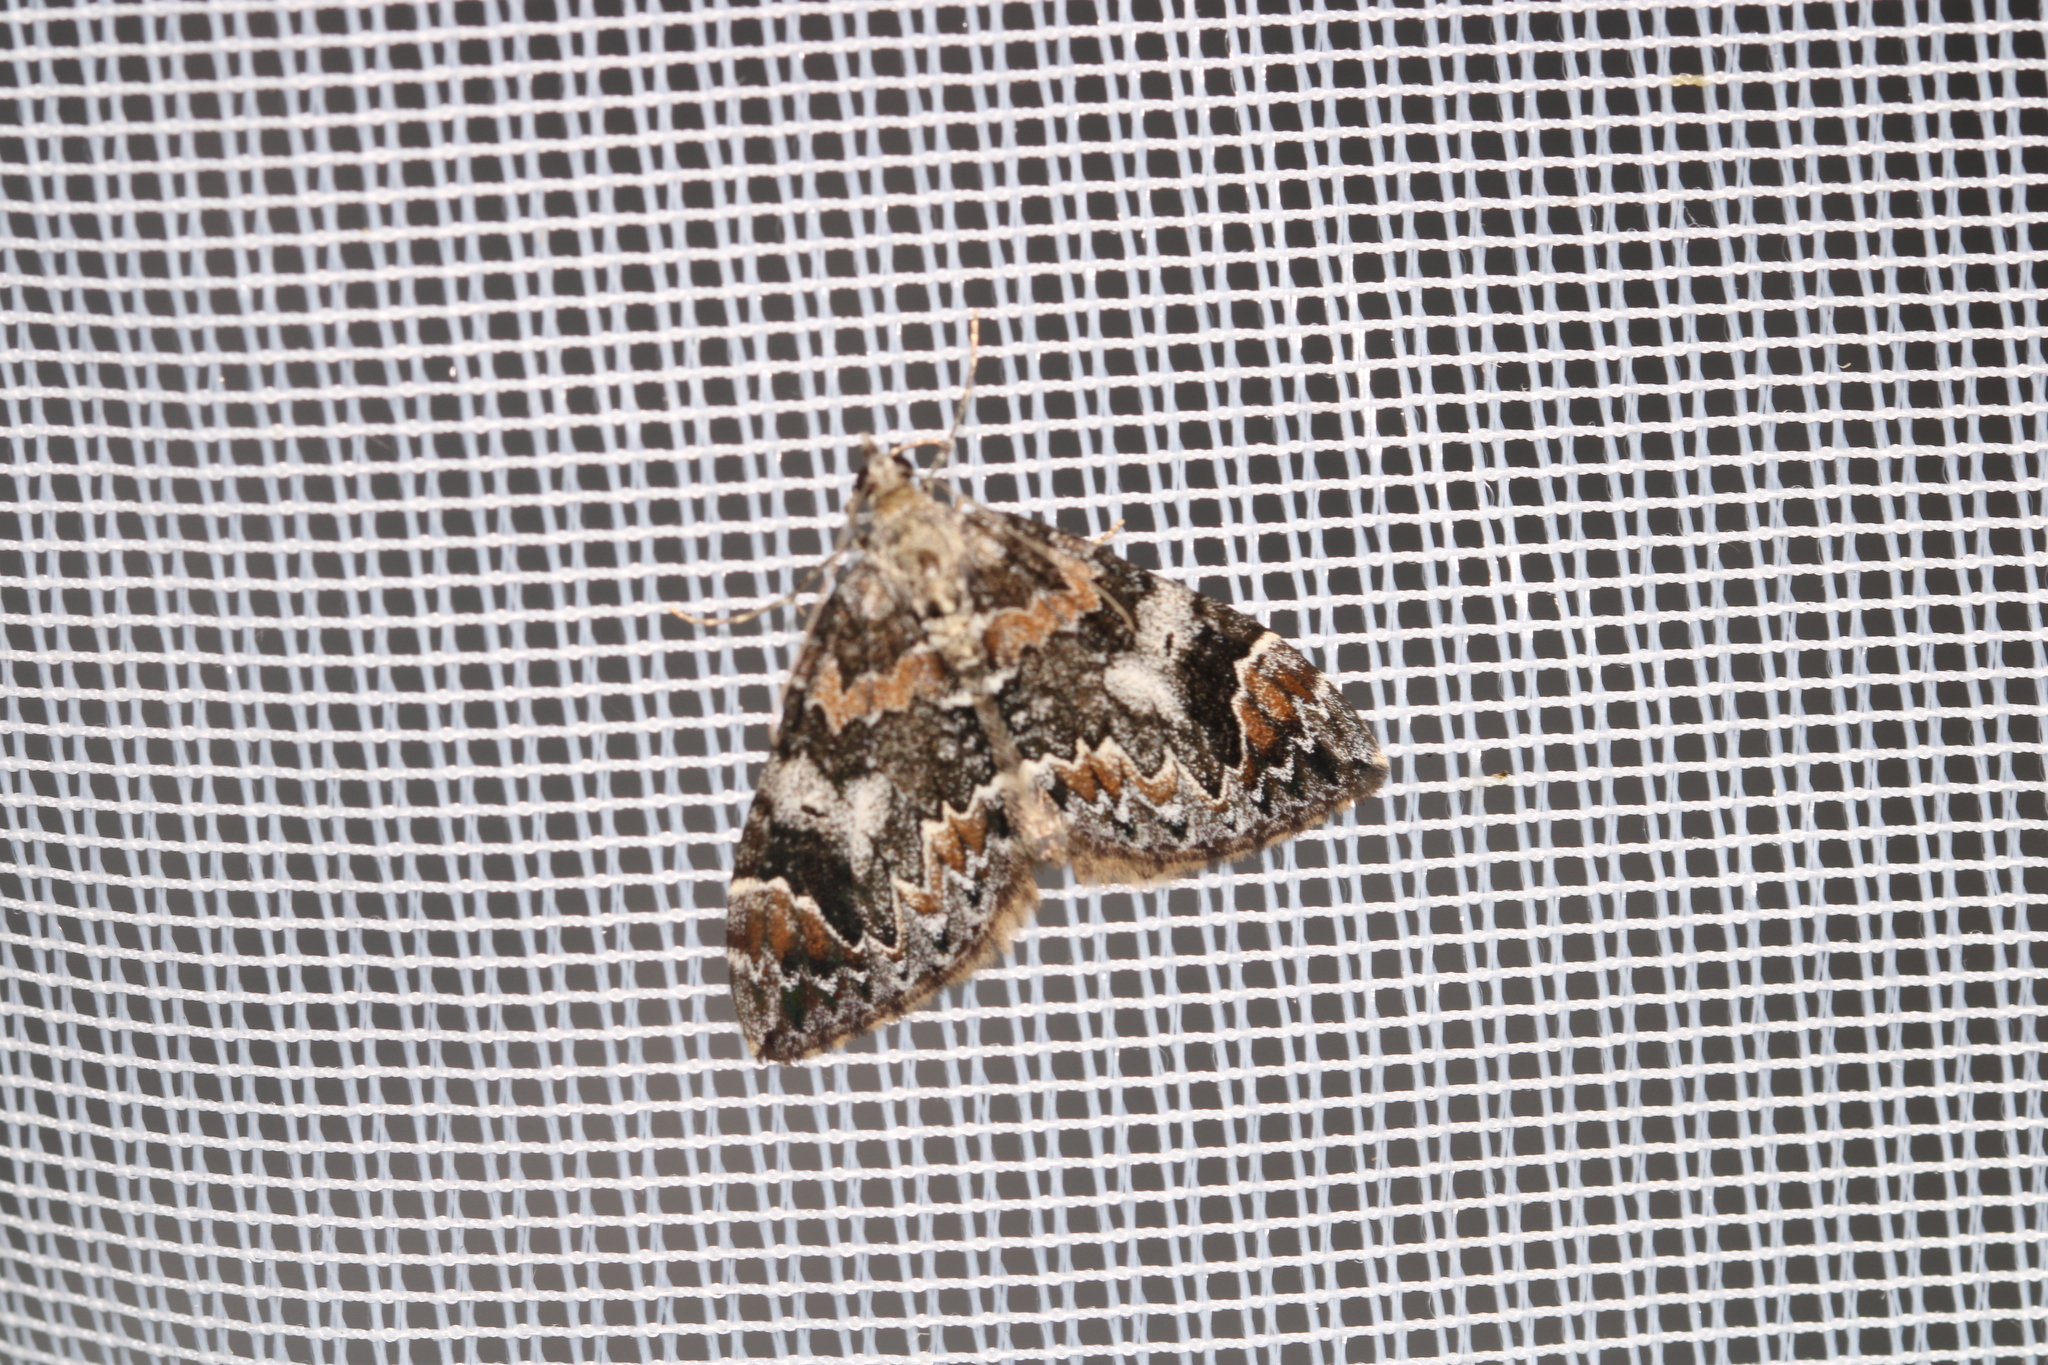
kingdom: Animalia
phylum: Arthropoda
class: Insecta
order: Lepidoptera
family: Geometridae
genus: Dysstroma
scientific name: Dysstroma citrata
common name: Dark marbled carpet
